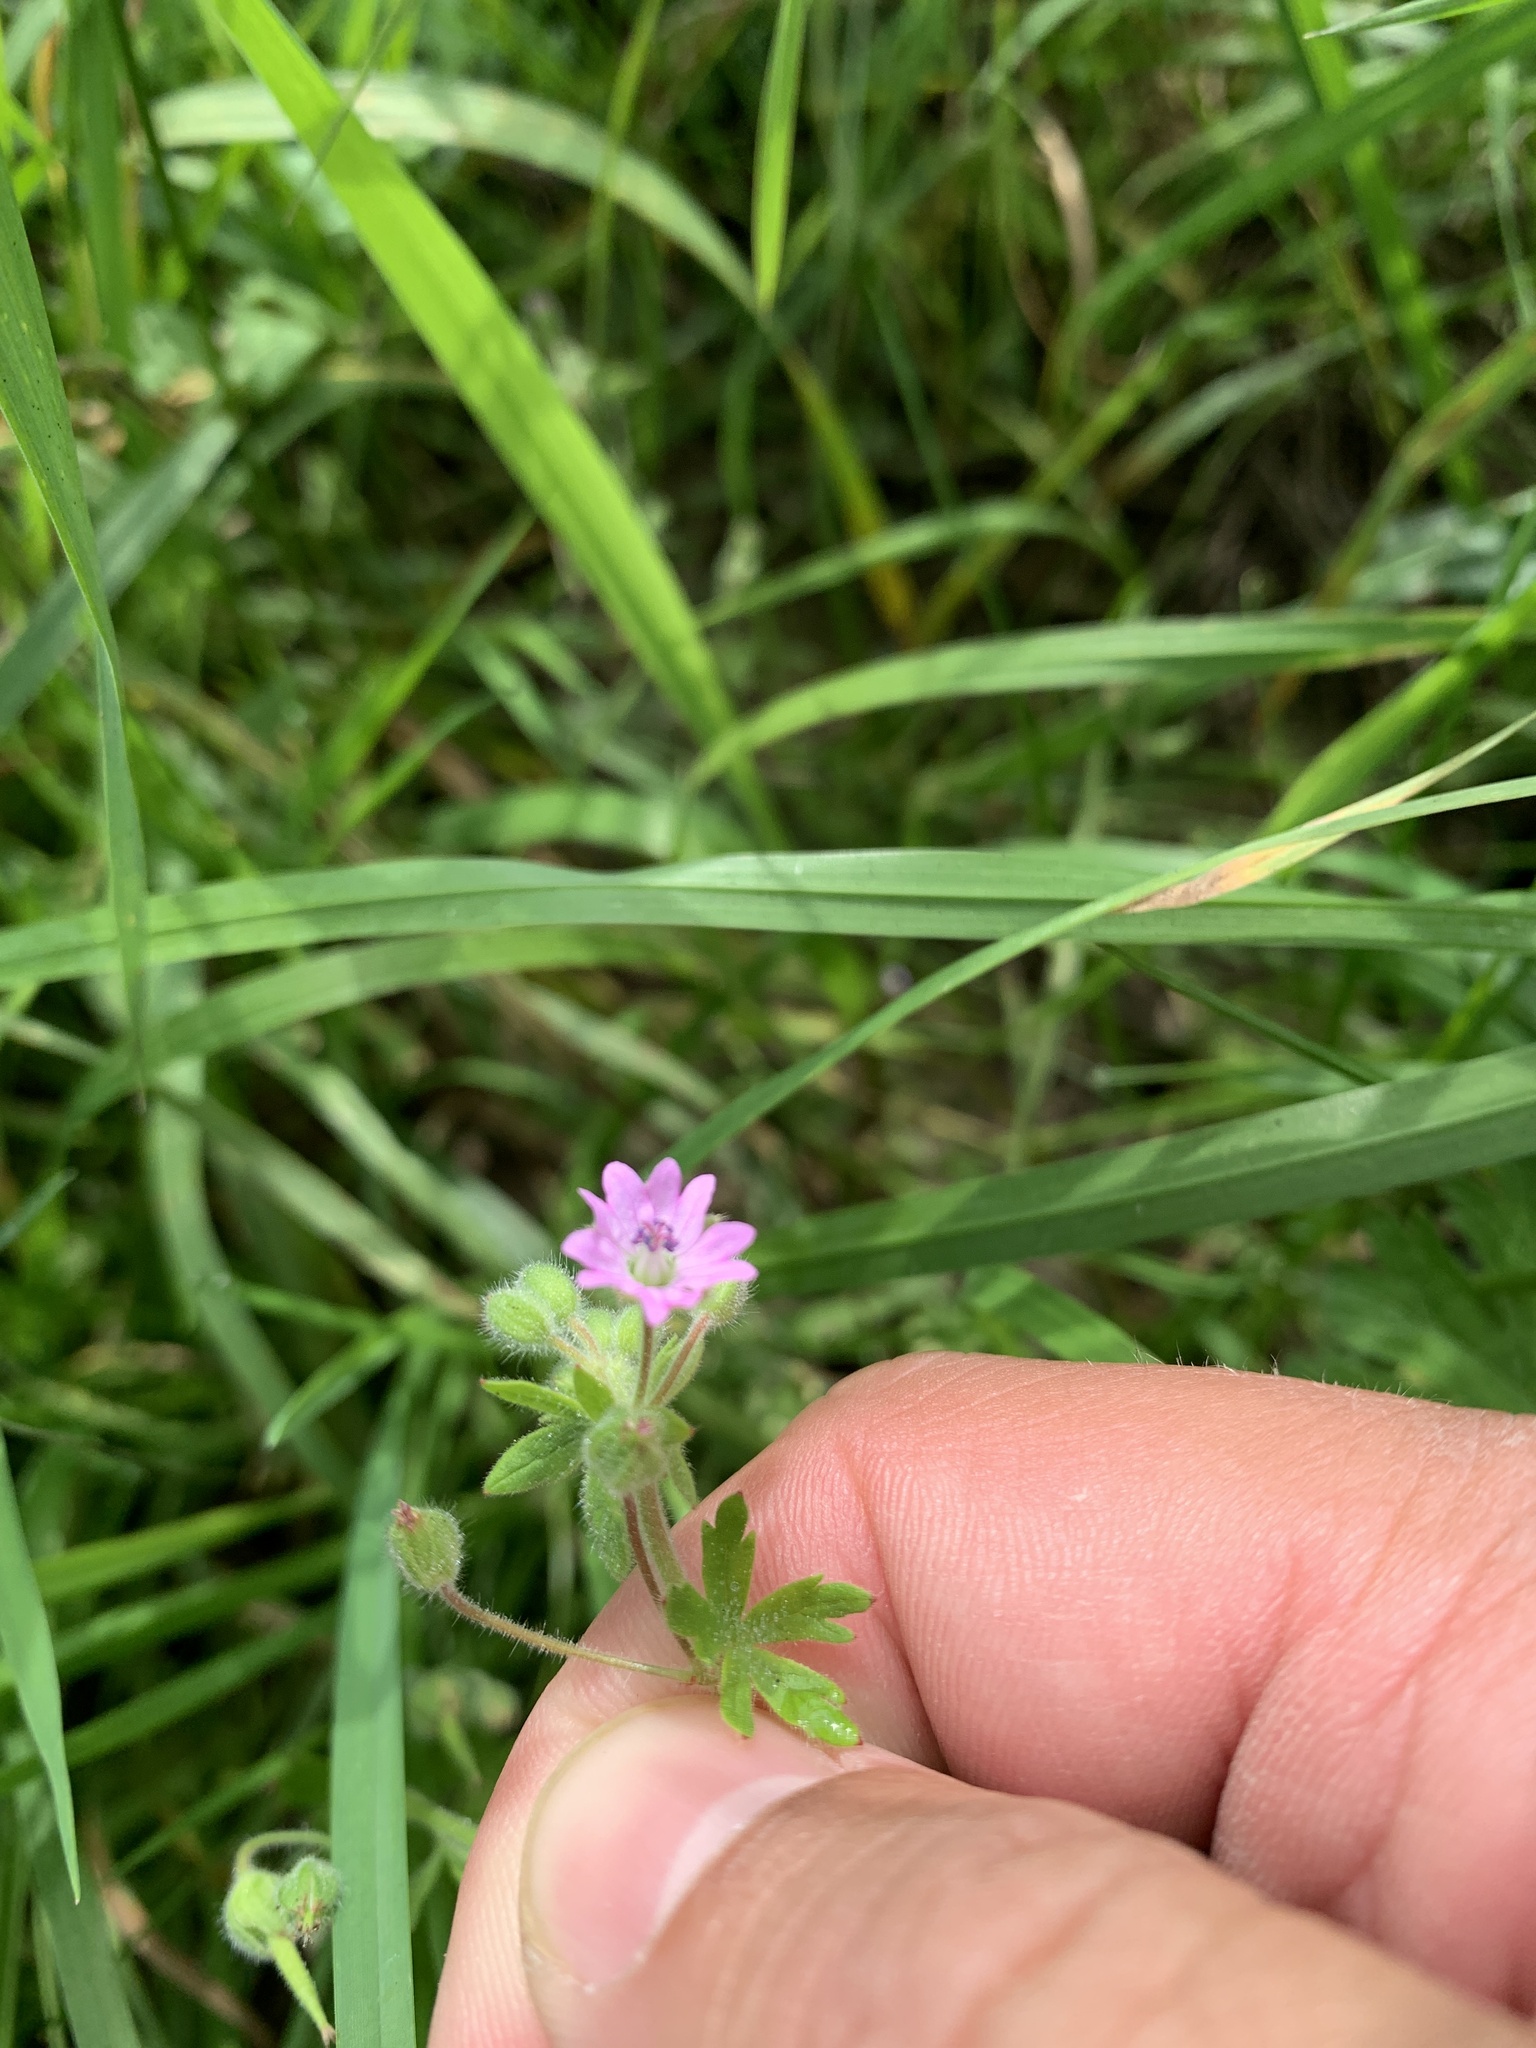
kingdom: Plantae
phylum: Tracheophyta
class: Magnoliopsida
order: Geraniales
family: Geraniaceae
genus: Geranium
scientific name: Geranium dissectum
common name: Cut-leaved crane's-bill
